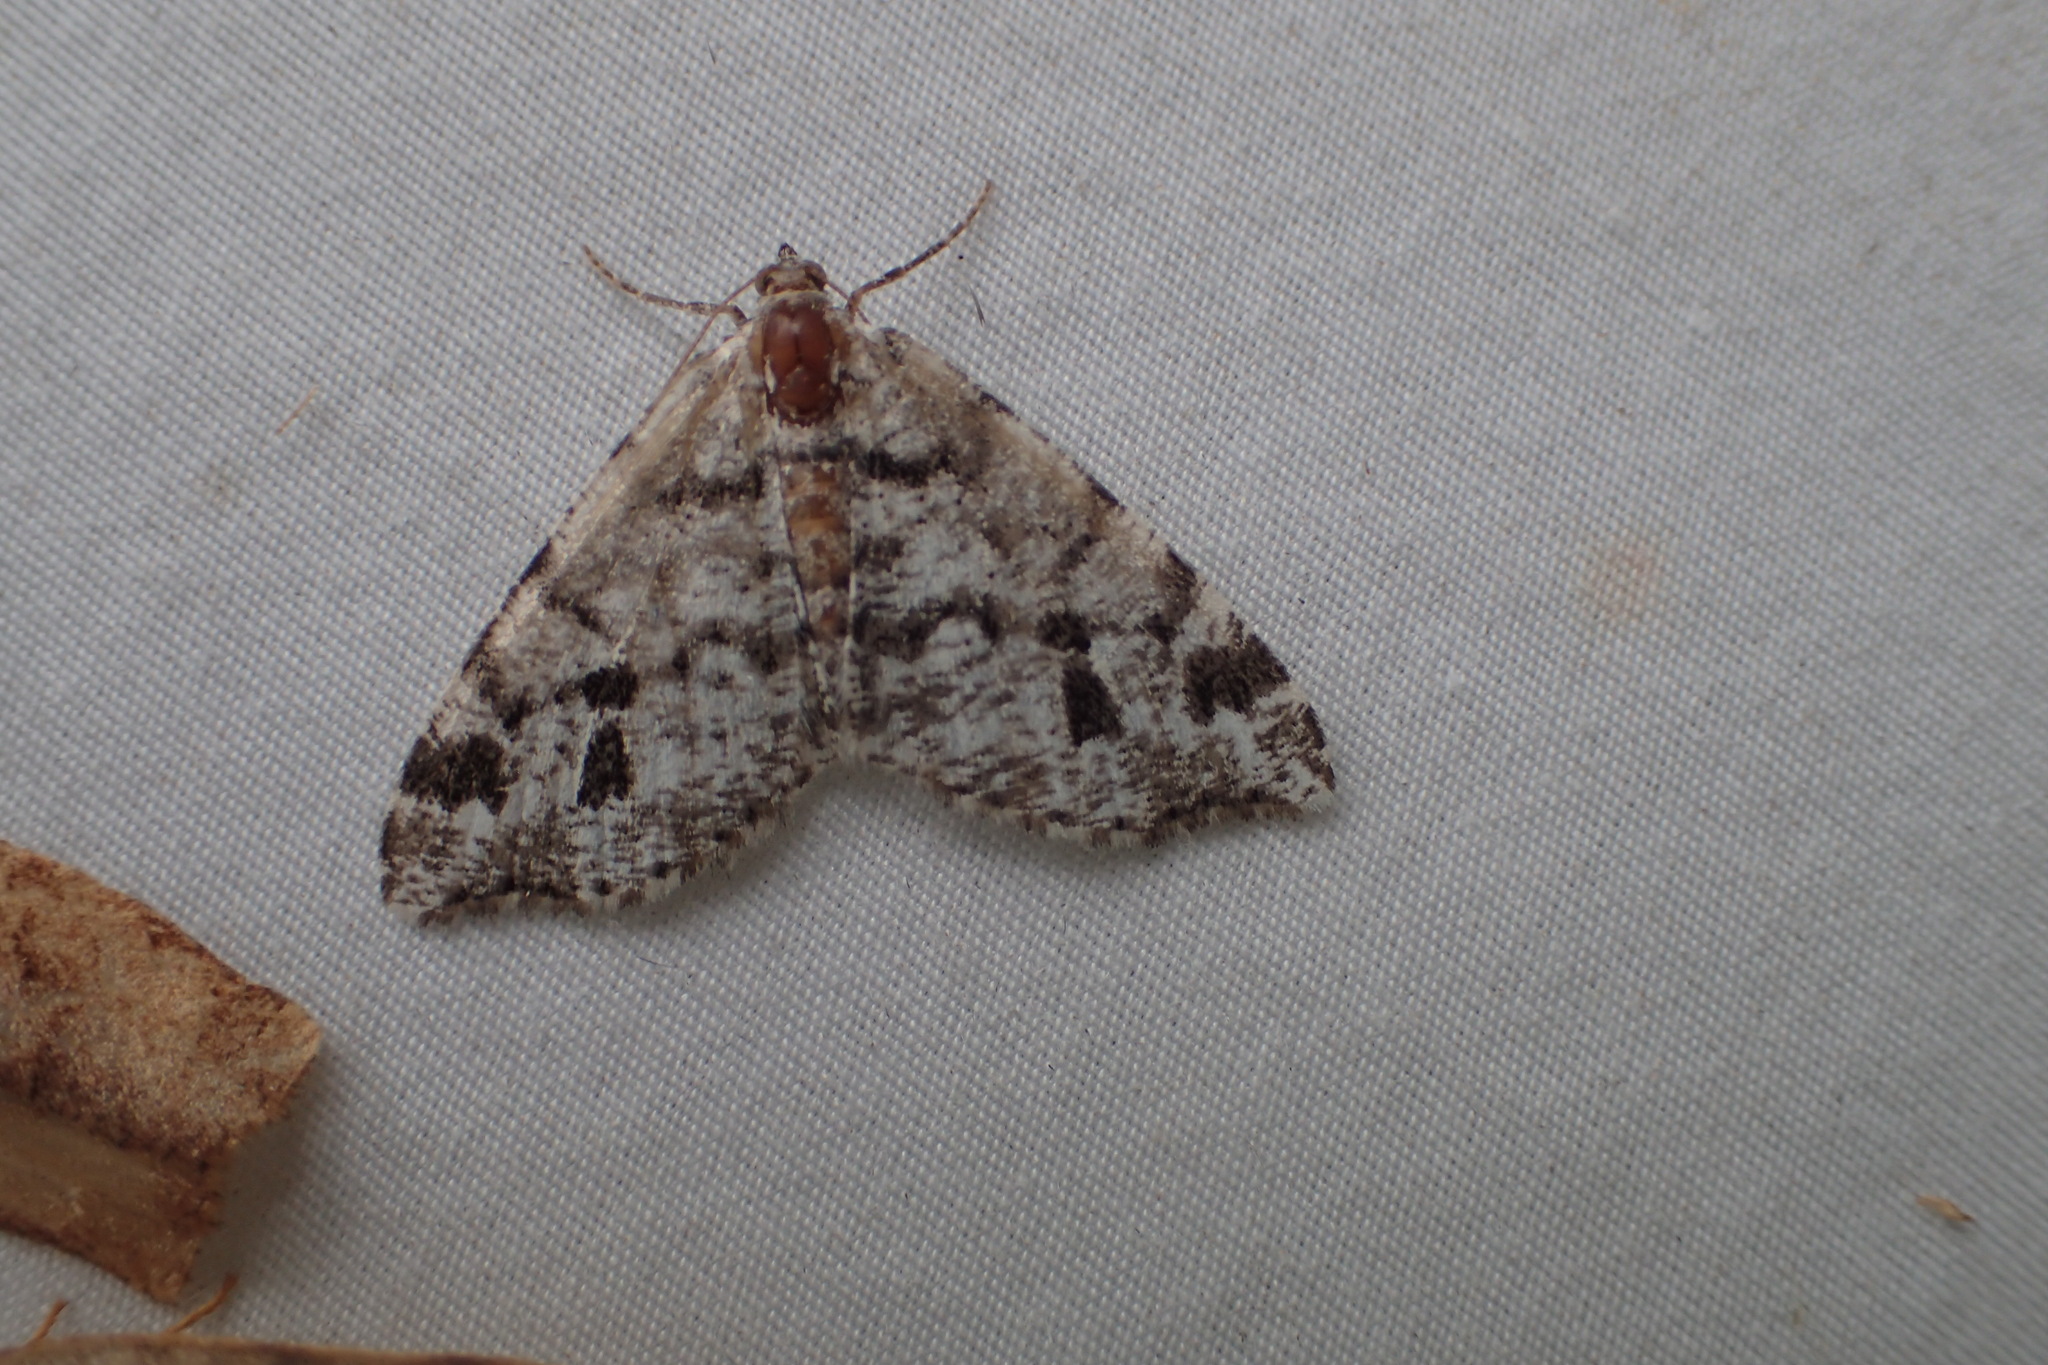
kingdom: Animalia
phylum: Arthropoda
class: Insecta
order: Lepidoptera
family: Geometridae
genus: Macaria
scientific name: Macaria oweni
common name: Owen's angle
